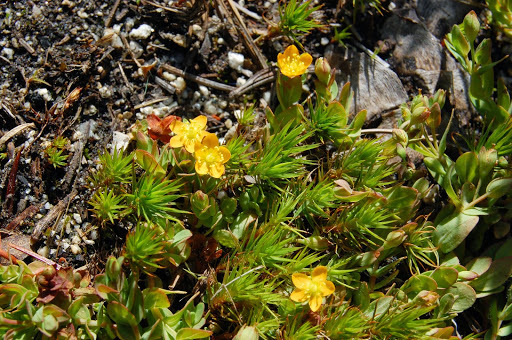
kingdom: Plantae
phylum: Tracheophyta
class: Magnoliopsida
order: Malpighiales
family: Hypericaceae
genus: Hypericum
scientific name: Hypericum anagalloides
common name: Bog st. john's-wort
